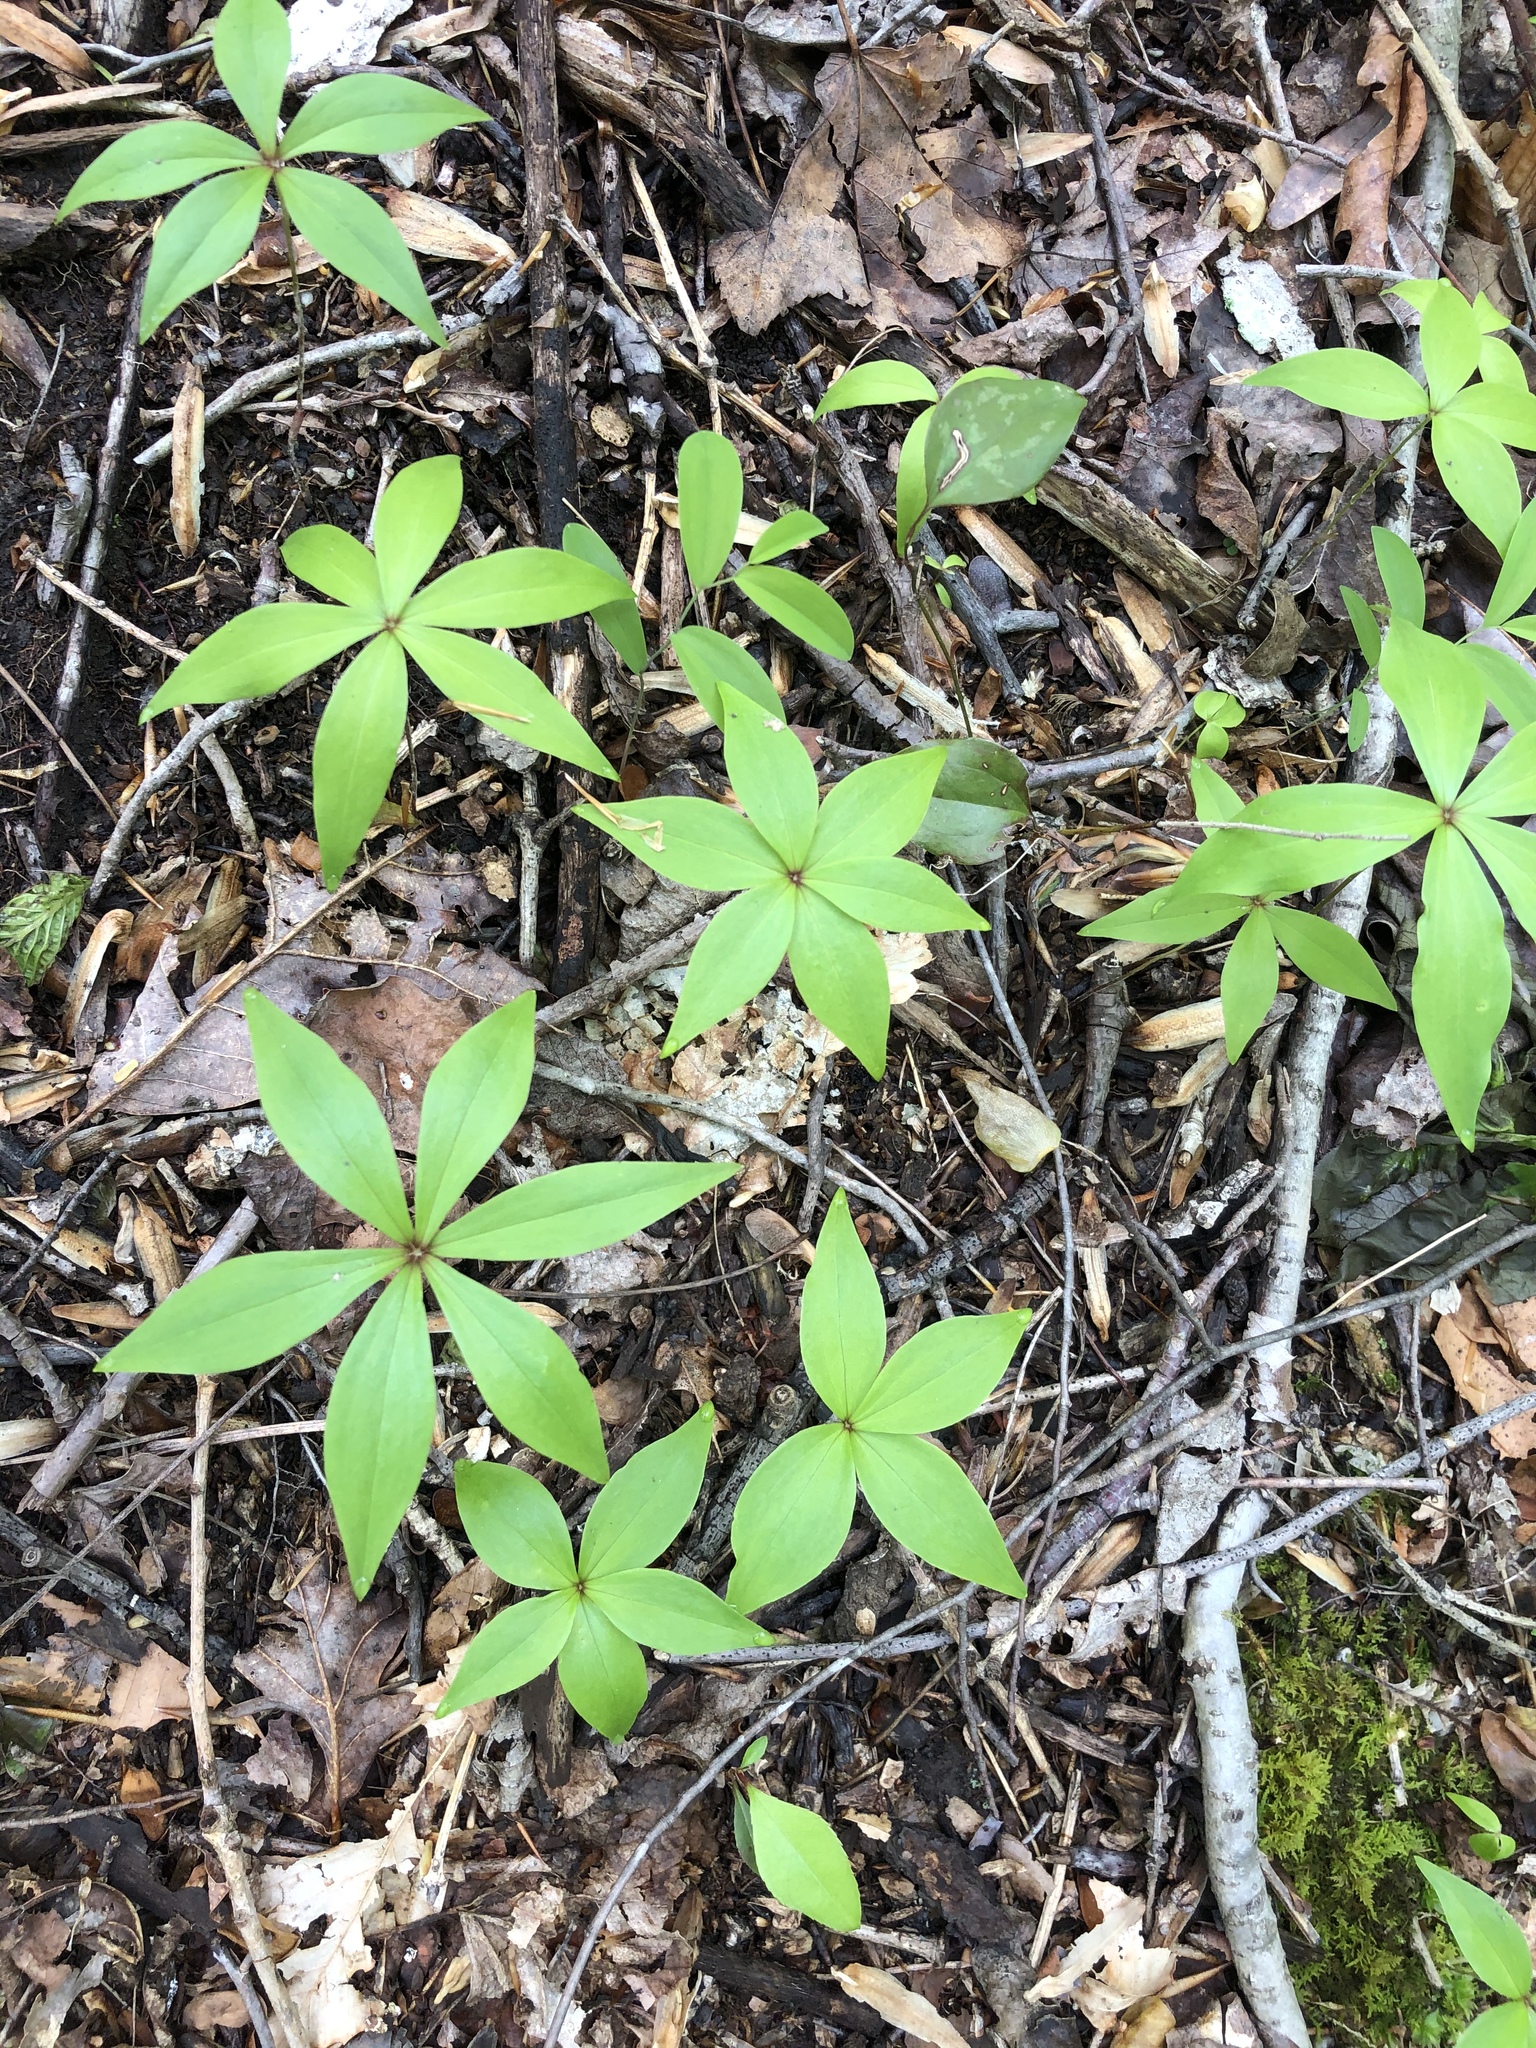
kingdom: Plantae
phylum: Tracheophyta
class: Liliopsida
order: Liliales
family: Liliaceae
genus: Medeola
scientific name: Medeola virginiana
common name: Indian cucumber-root
